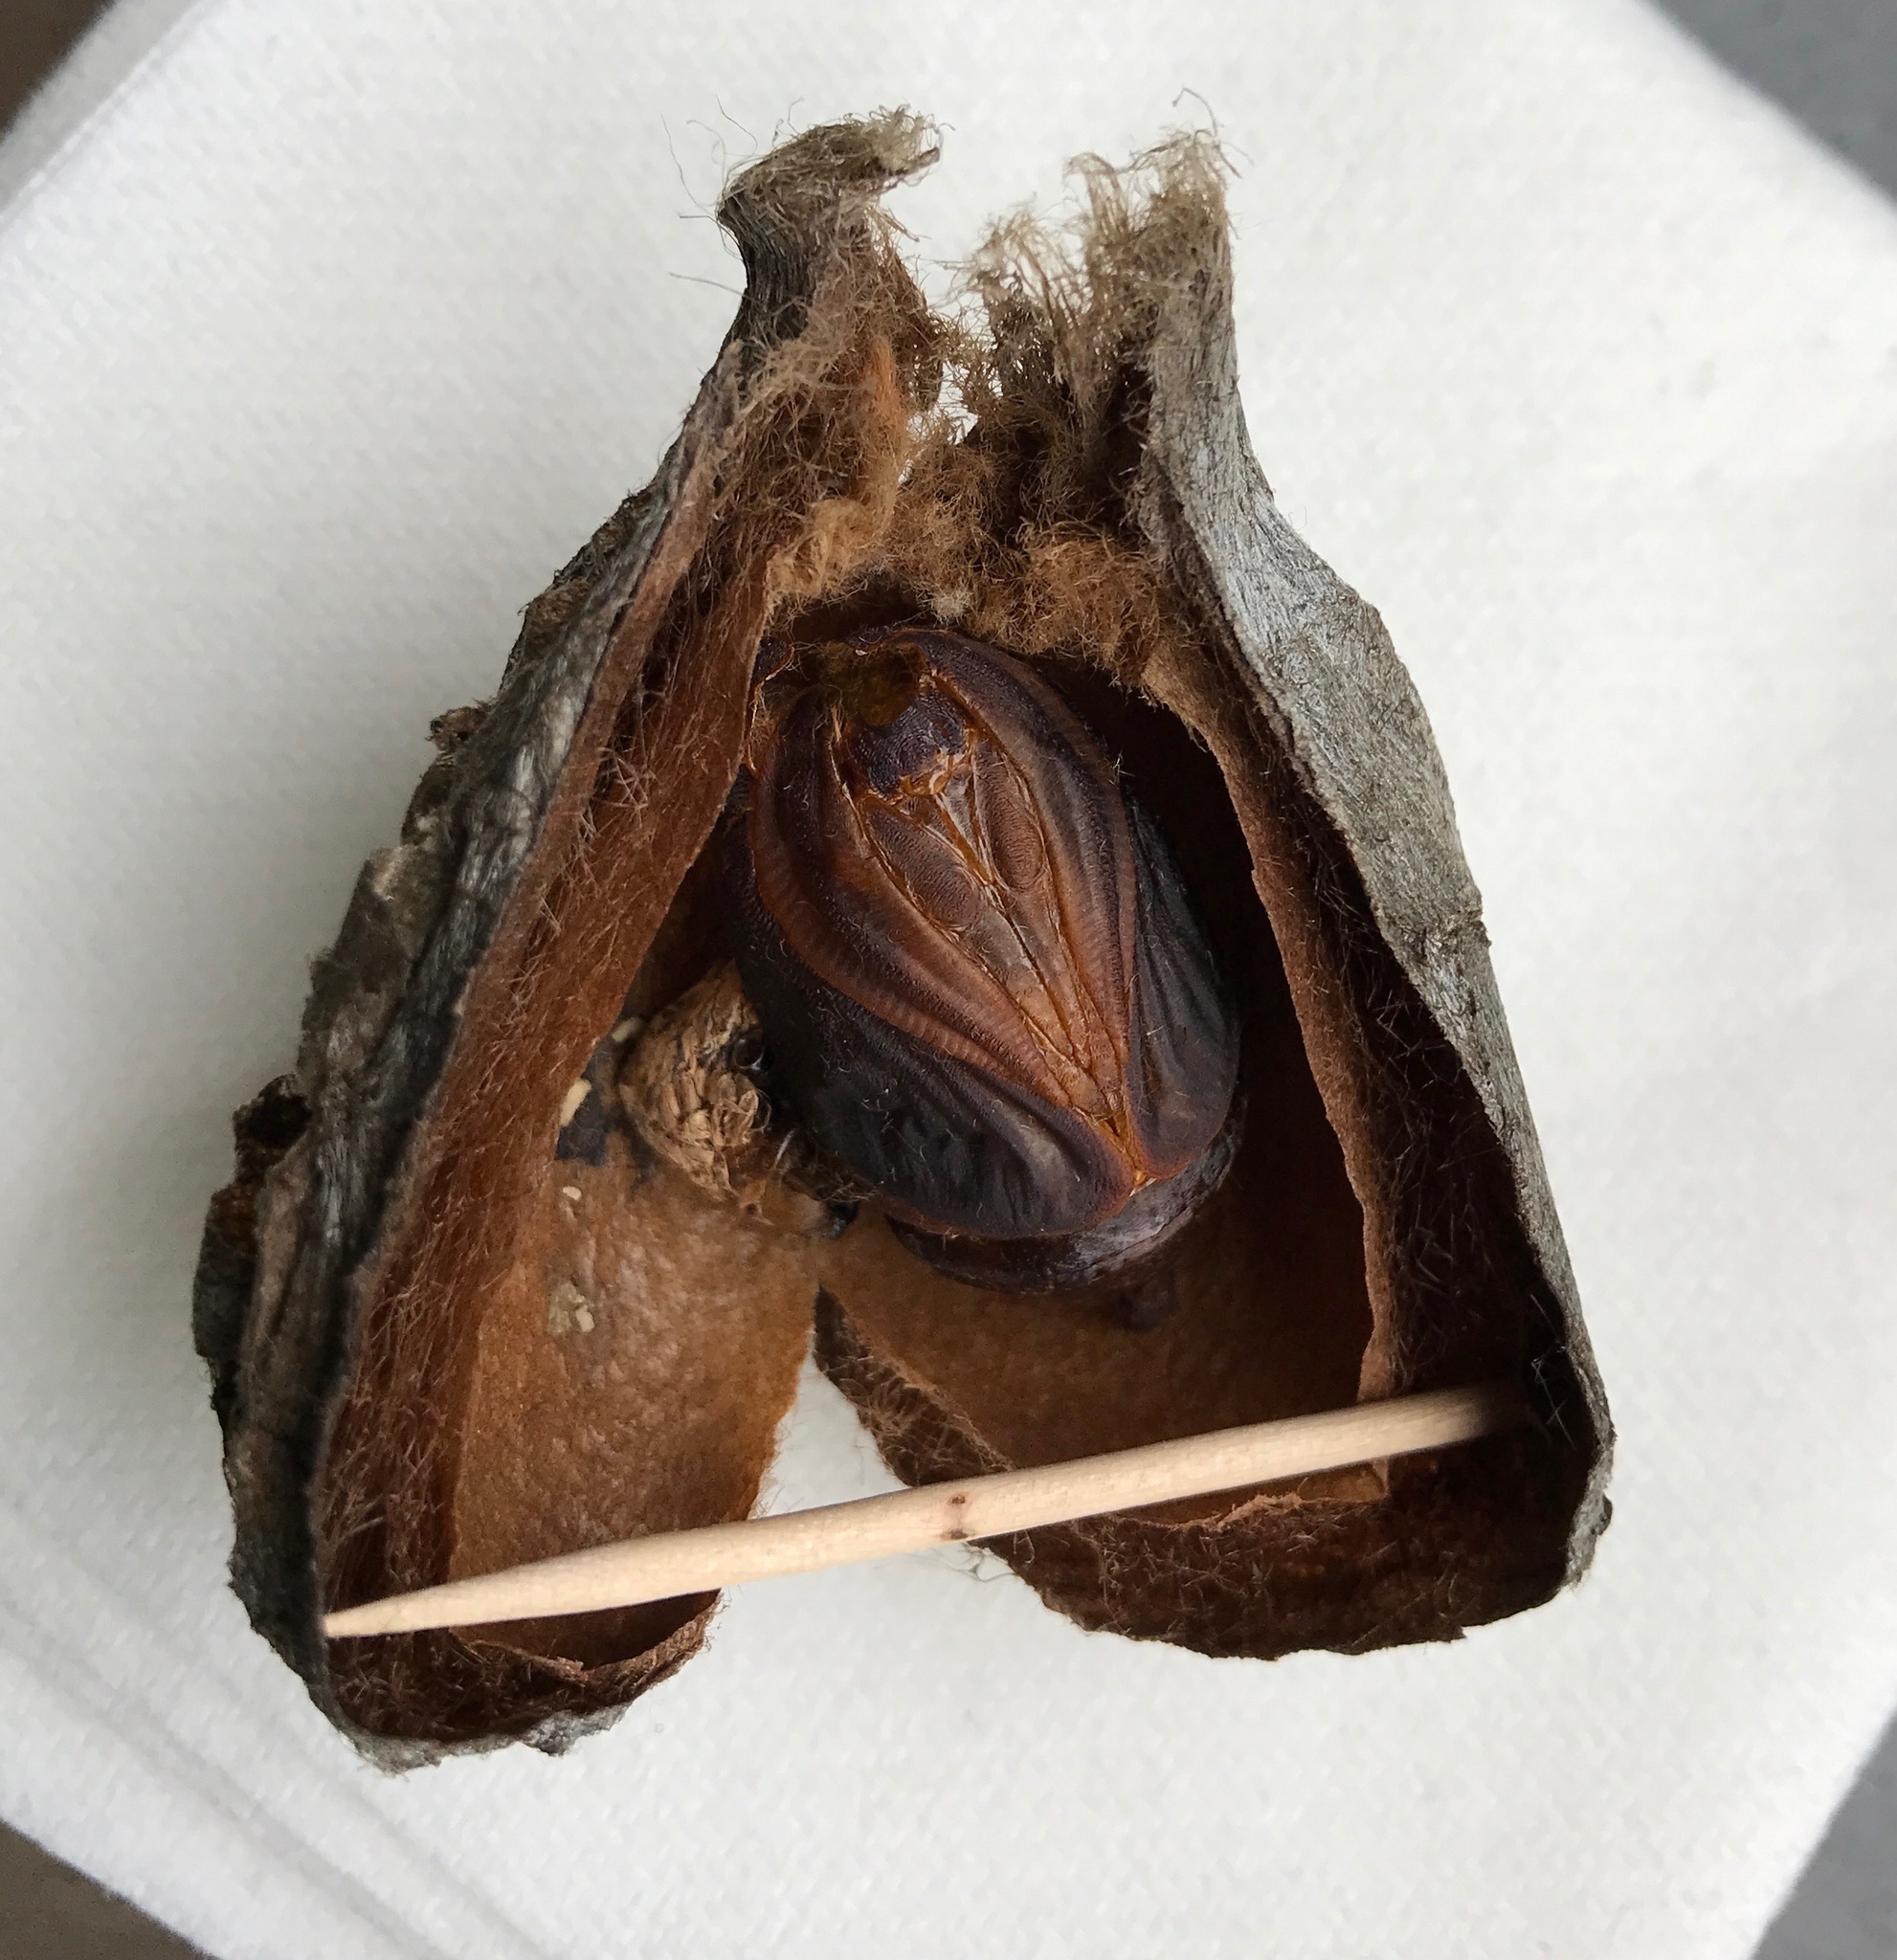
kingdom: Animalia
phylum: Arthropoda
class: Insecta
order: Lepidoptera
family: Saturniidae
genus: Hyalophora
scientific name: Hyalophora euryalus
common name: Ceanothus silkmoth
